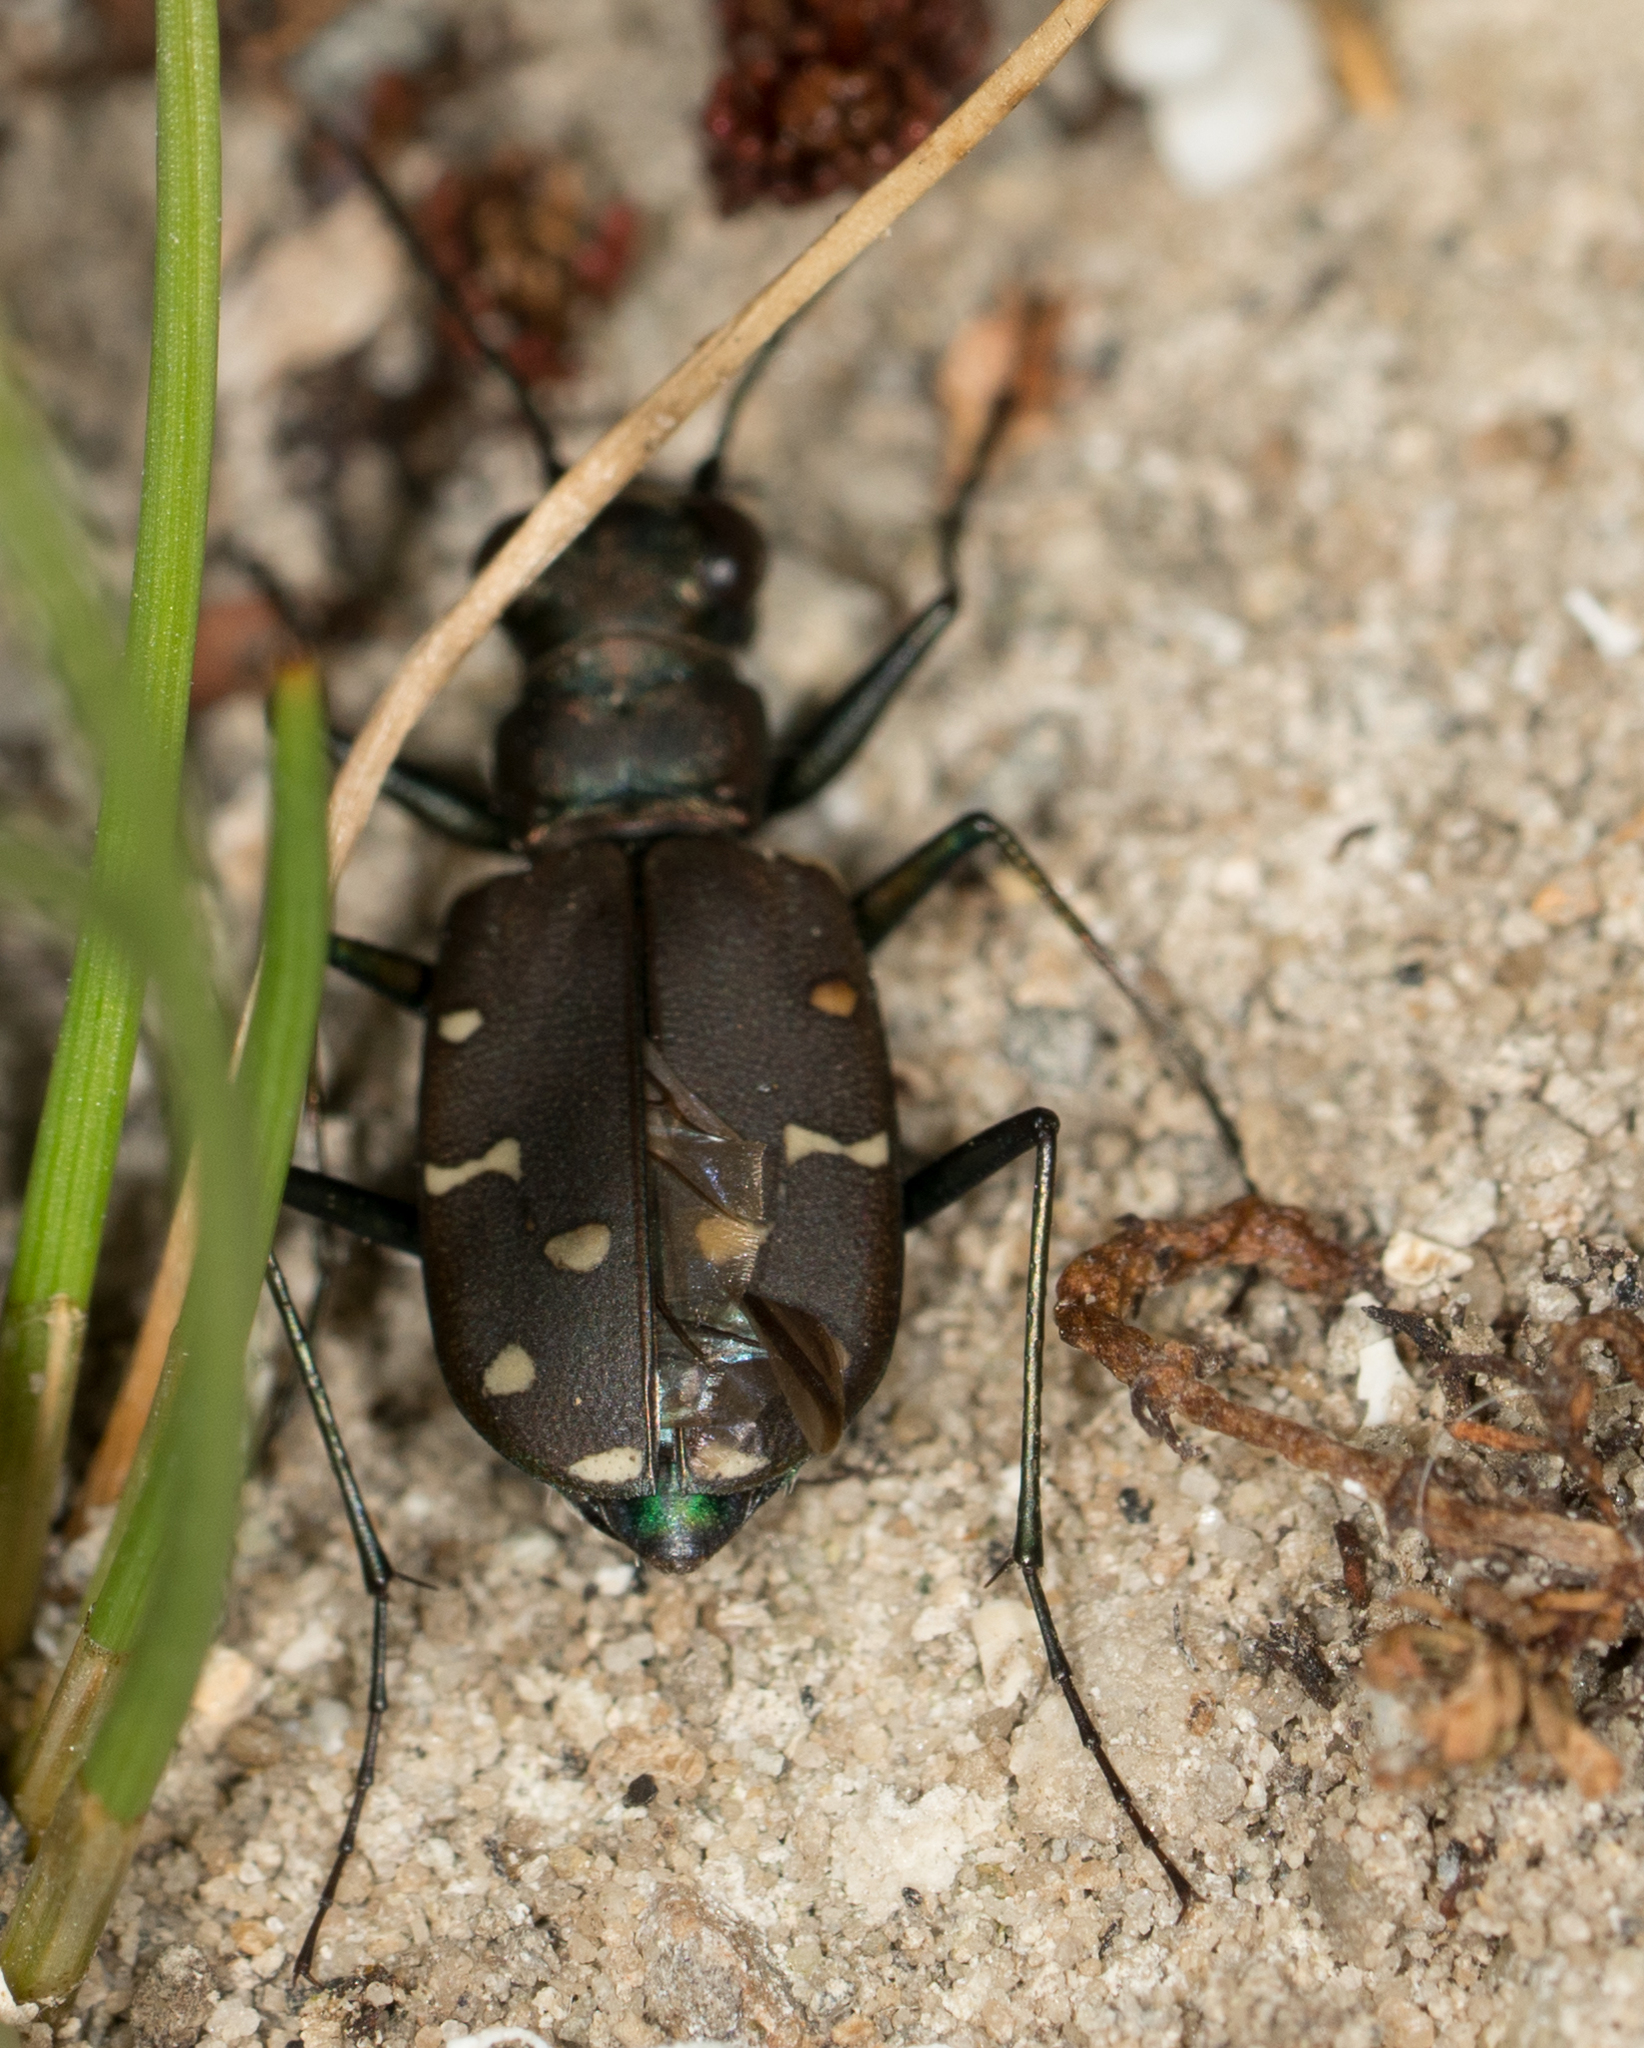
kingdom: Animalia
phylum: Arthropoda
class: Insecta
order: Coleoptera
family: Carabidae
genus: Cicindela
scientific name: Cicindela oregona
